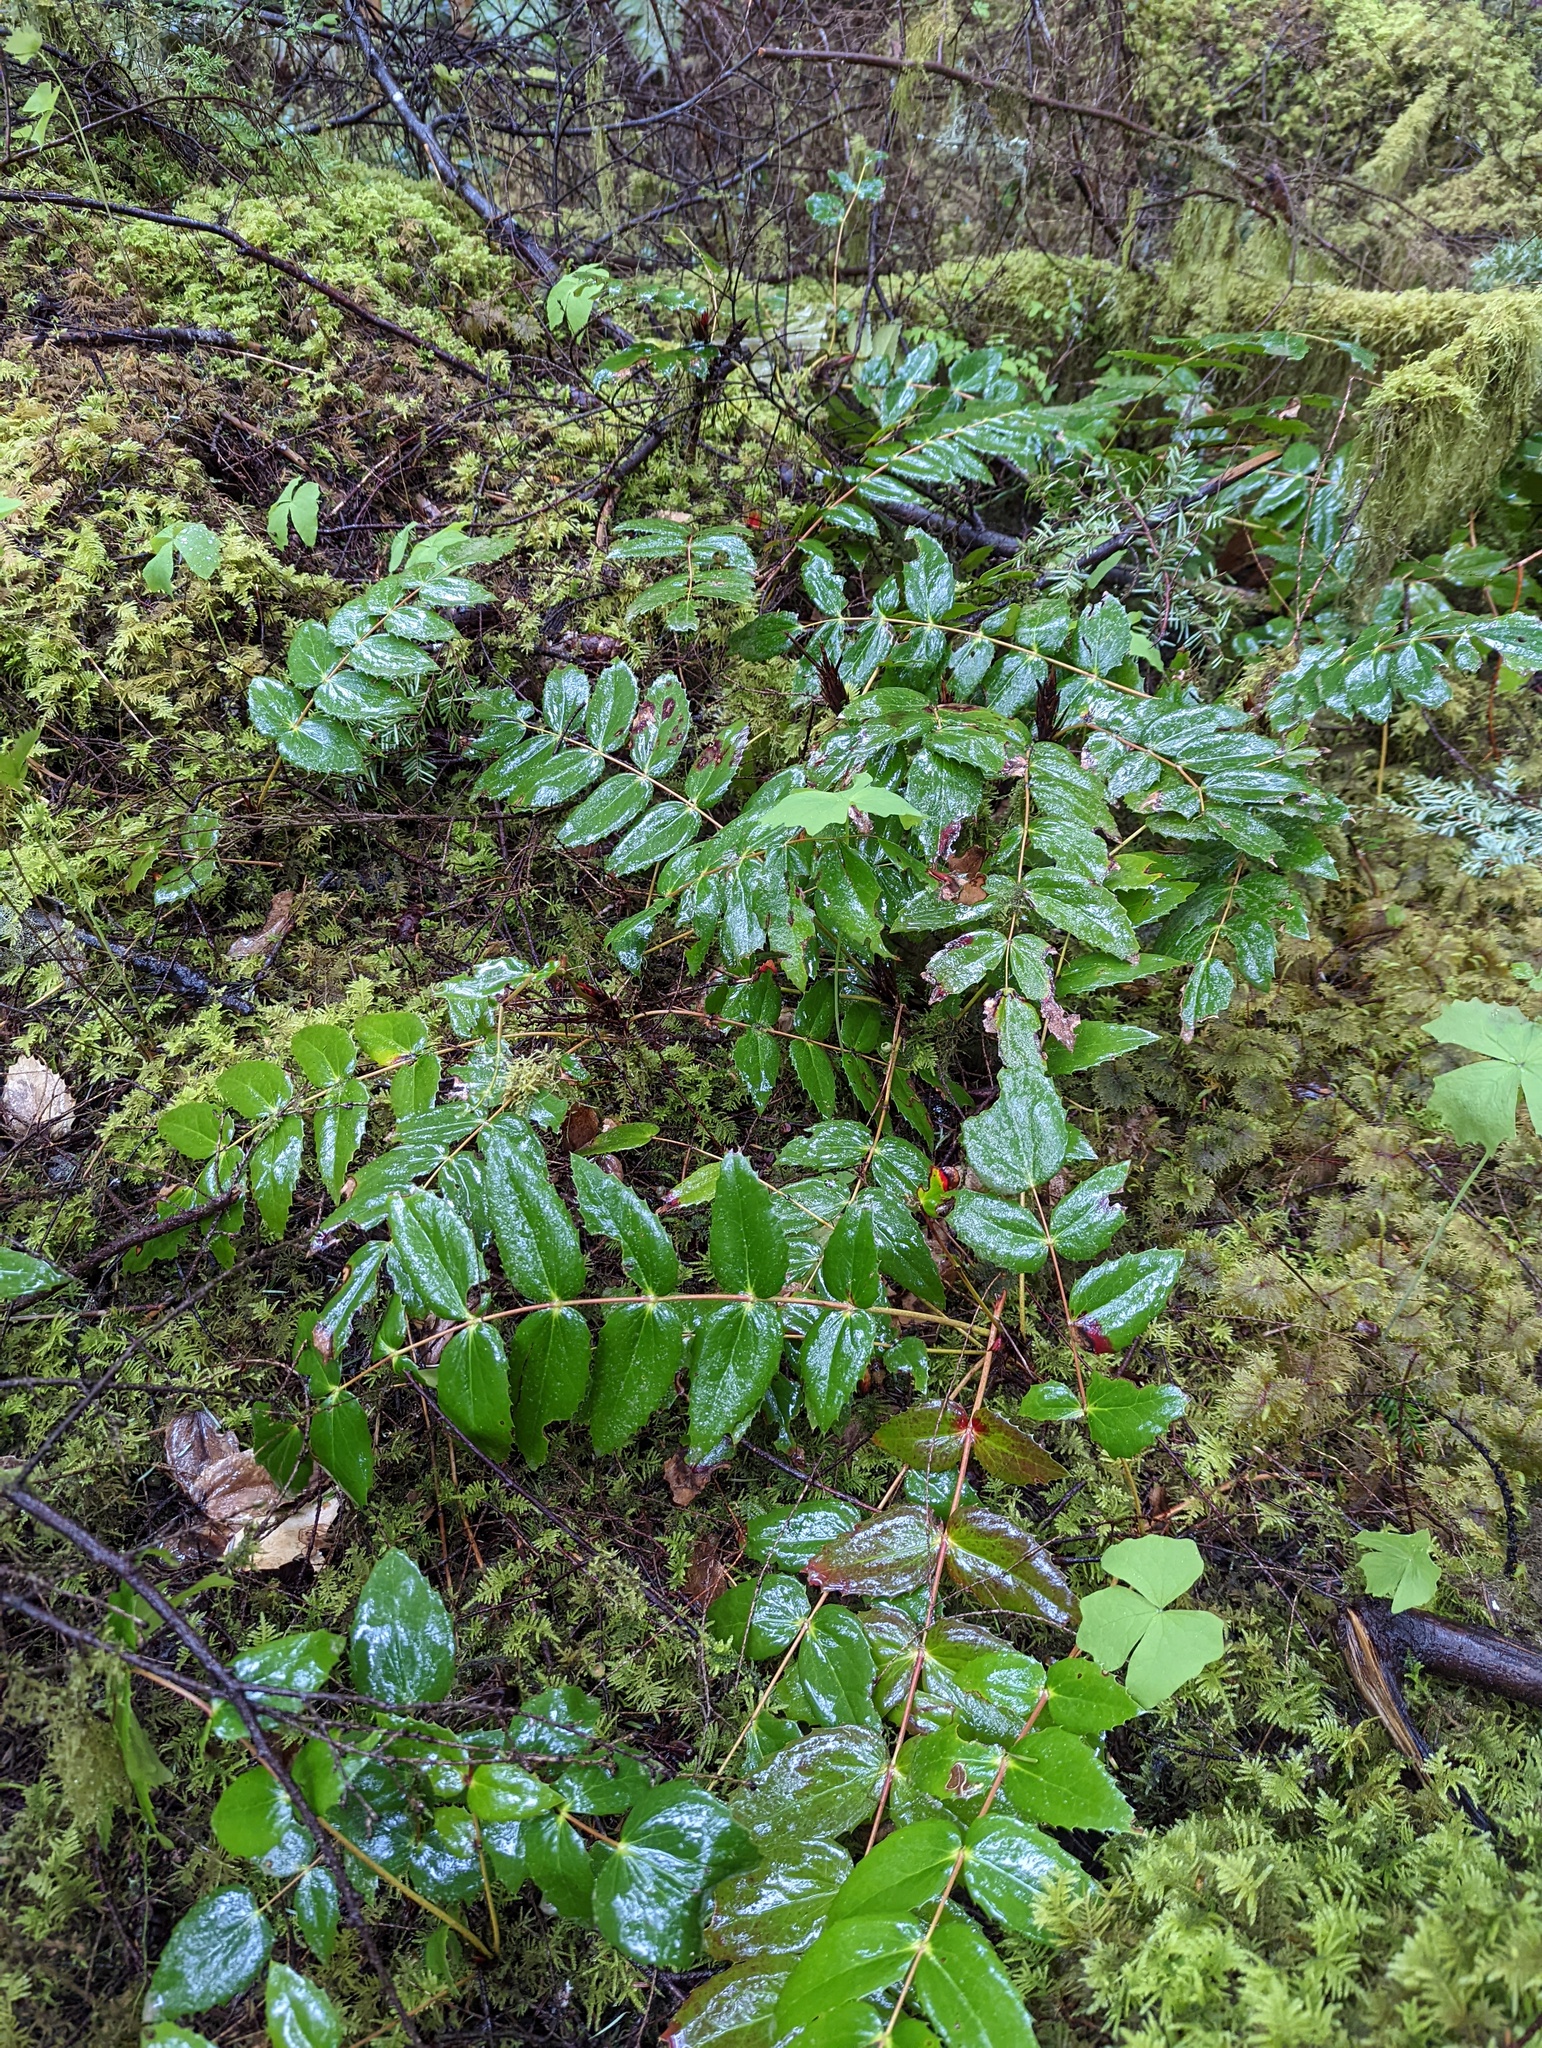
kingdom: Plantae
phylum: Tracheophyta
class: Magnoliopsida
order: Ranunculales
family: Berberidaceae
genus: Mahonia
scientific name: Mahonia nervosa
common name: Cascade oregon-grape
